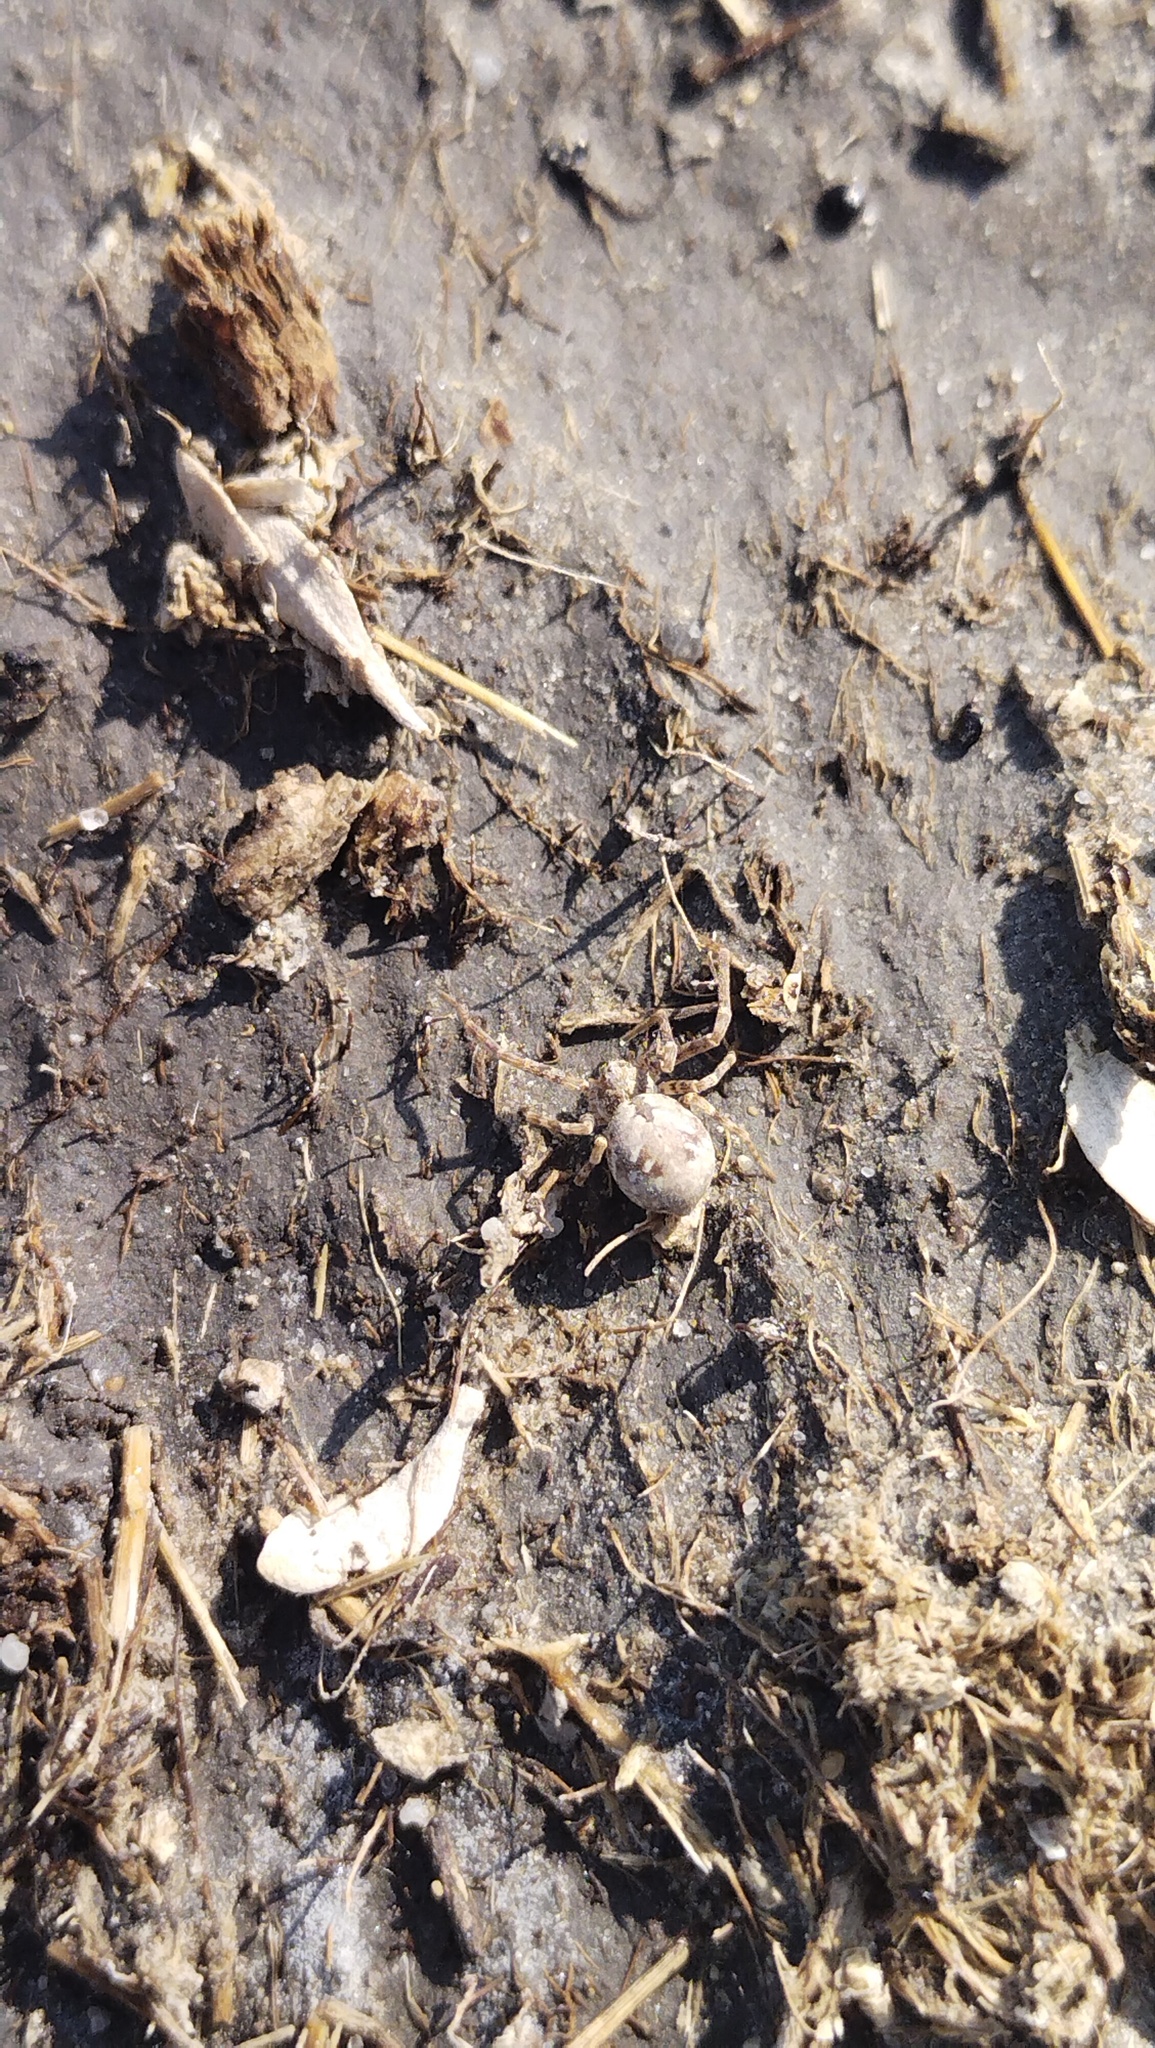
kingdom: Animalia
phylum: Arthropoda
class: Arachnida
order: Araneae
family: Philodromidae
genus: Rhysodromus
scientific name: Rhysodromus
